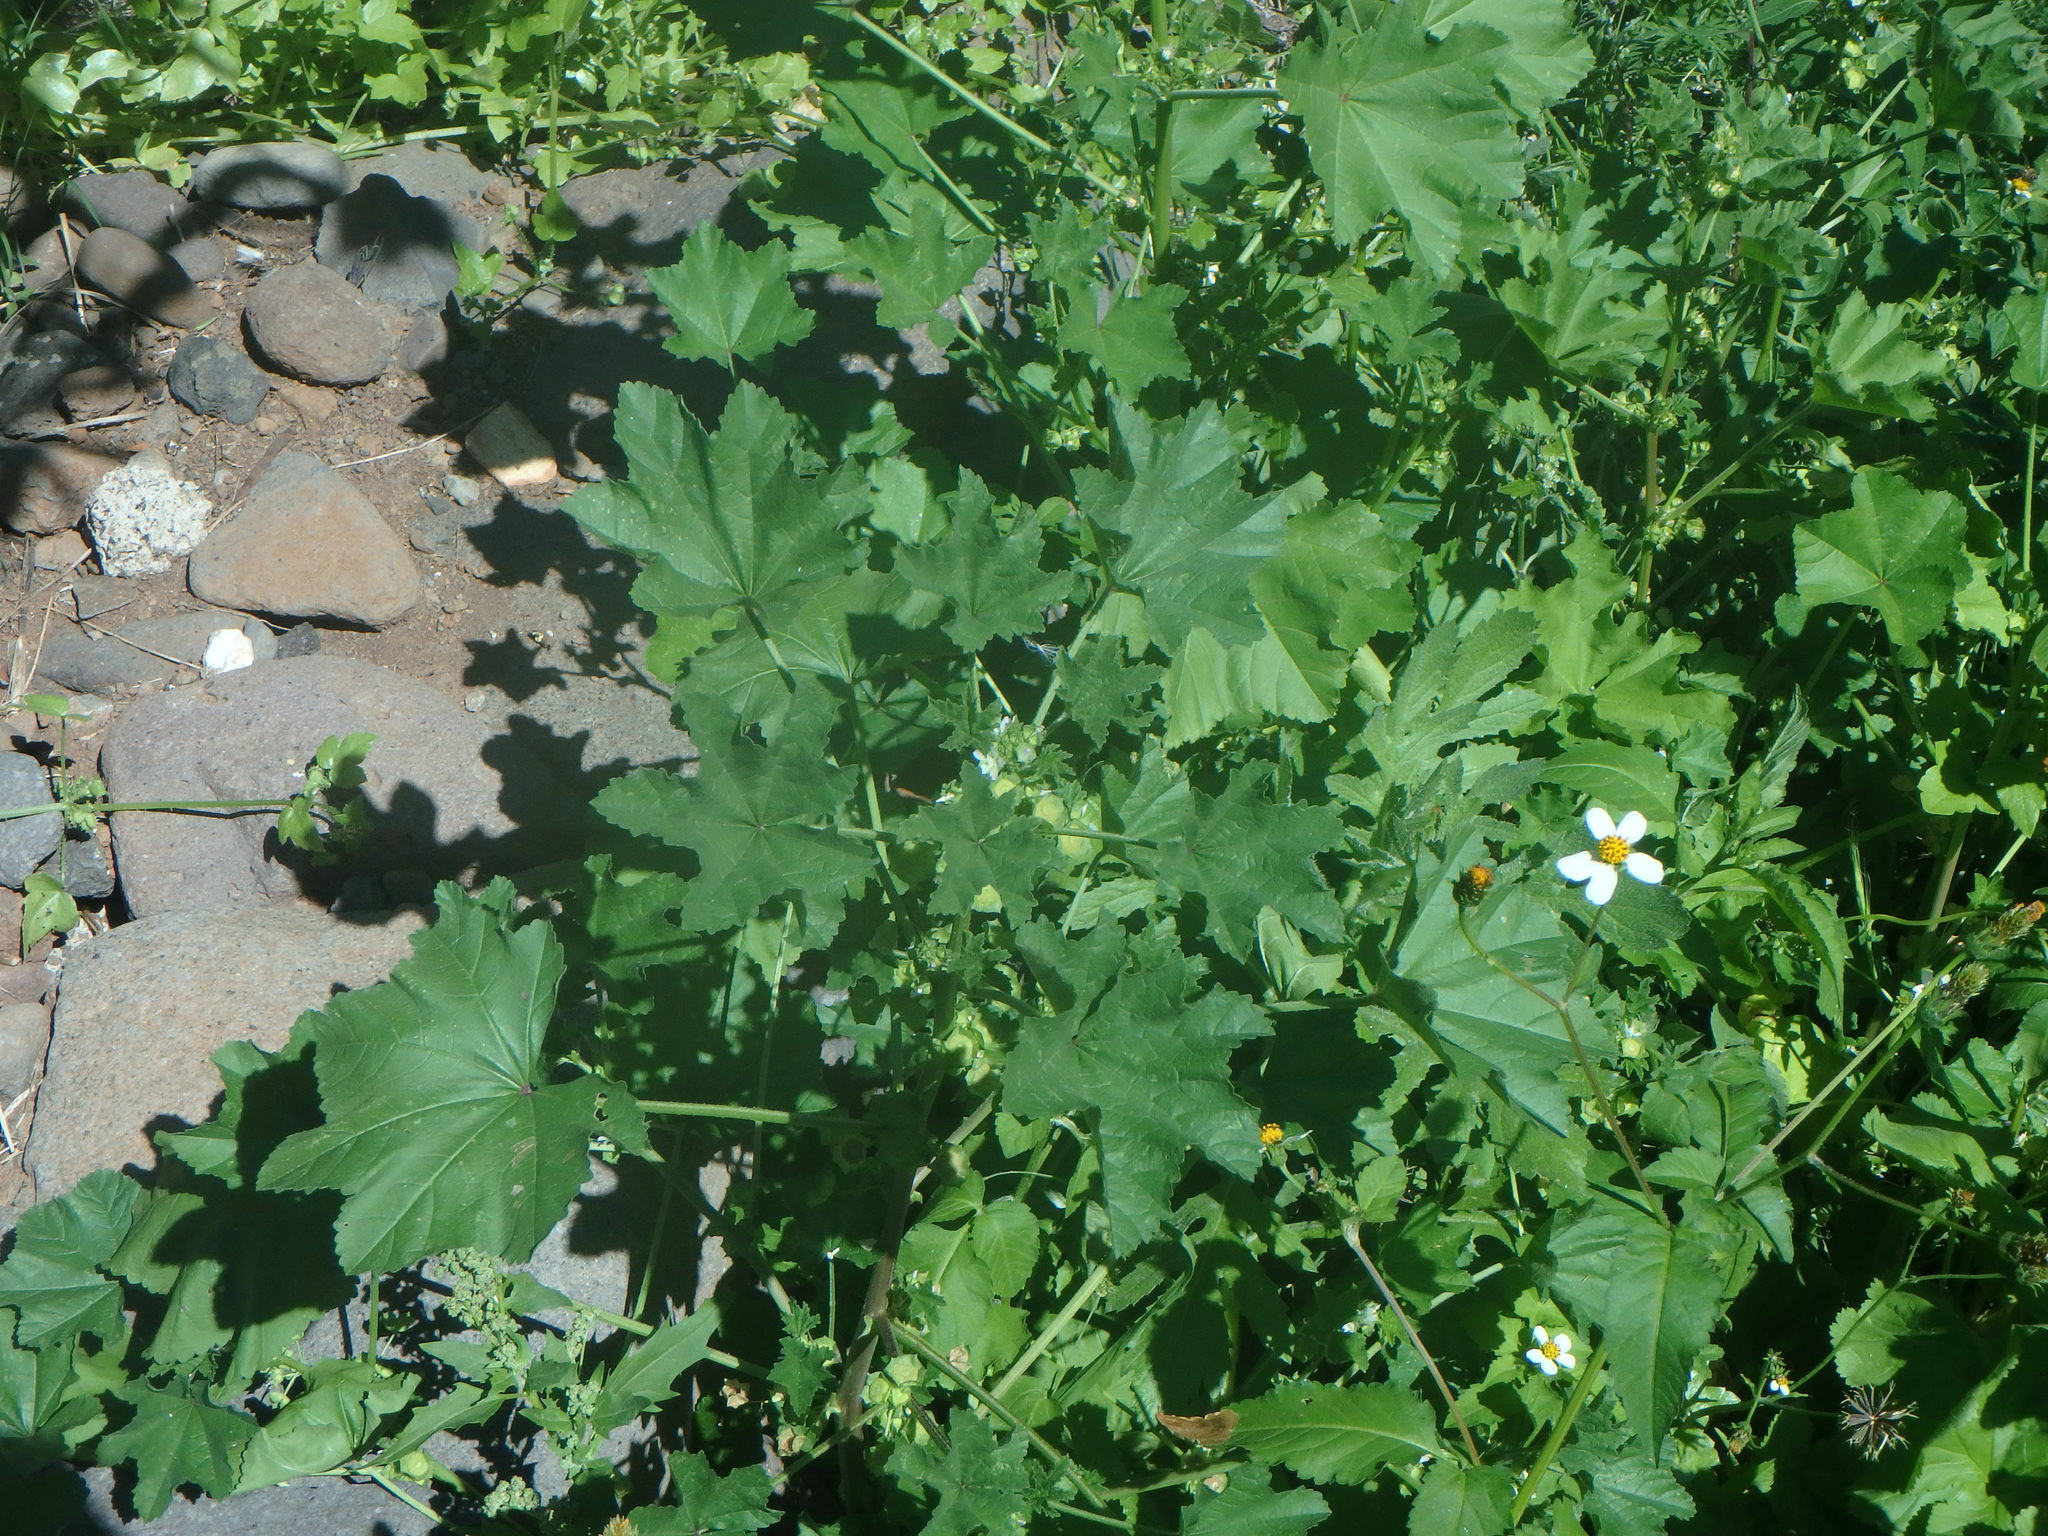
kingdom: Plantae
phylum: Tracheophyta
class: Magnoliopsida
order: Malvales
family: Malvaceae
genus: Malva
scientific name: Malva parviflora
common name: Least mallow
